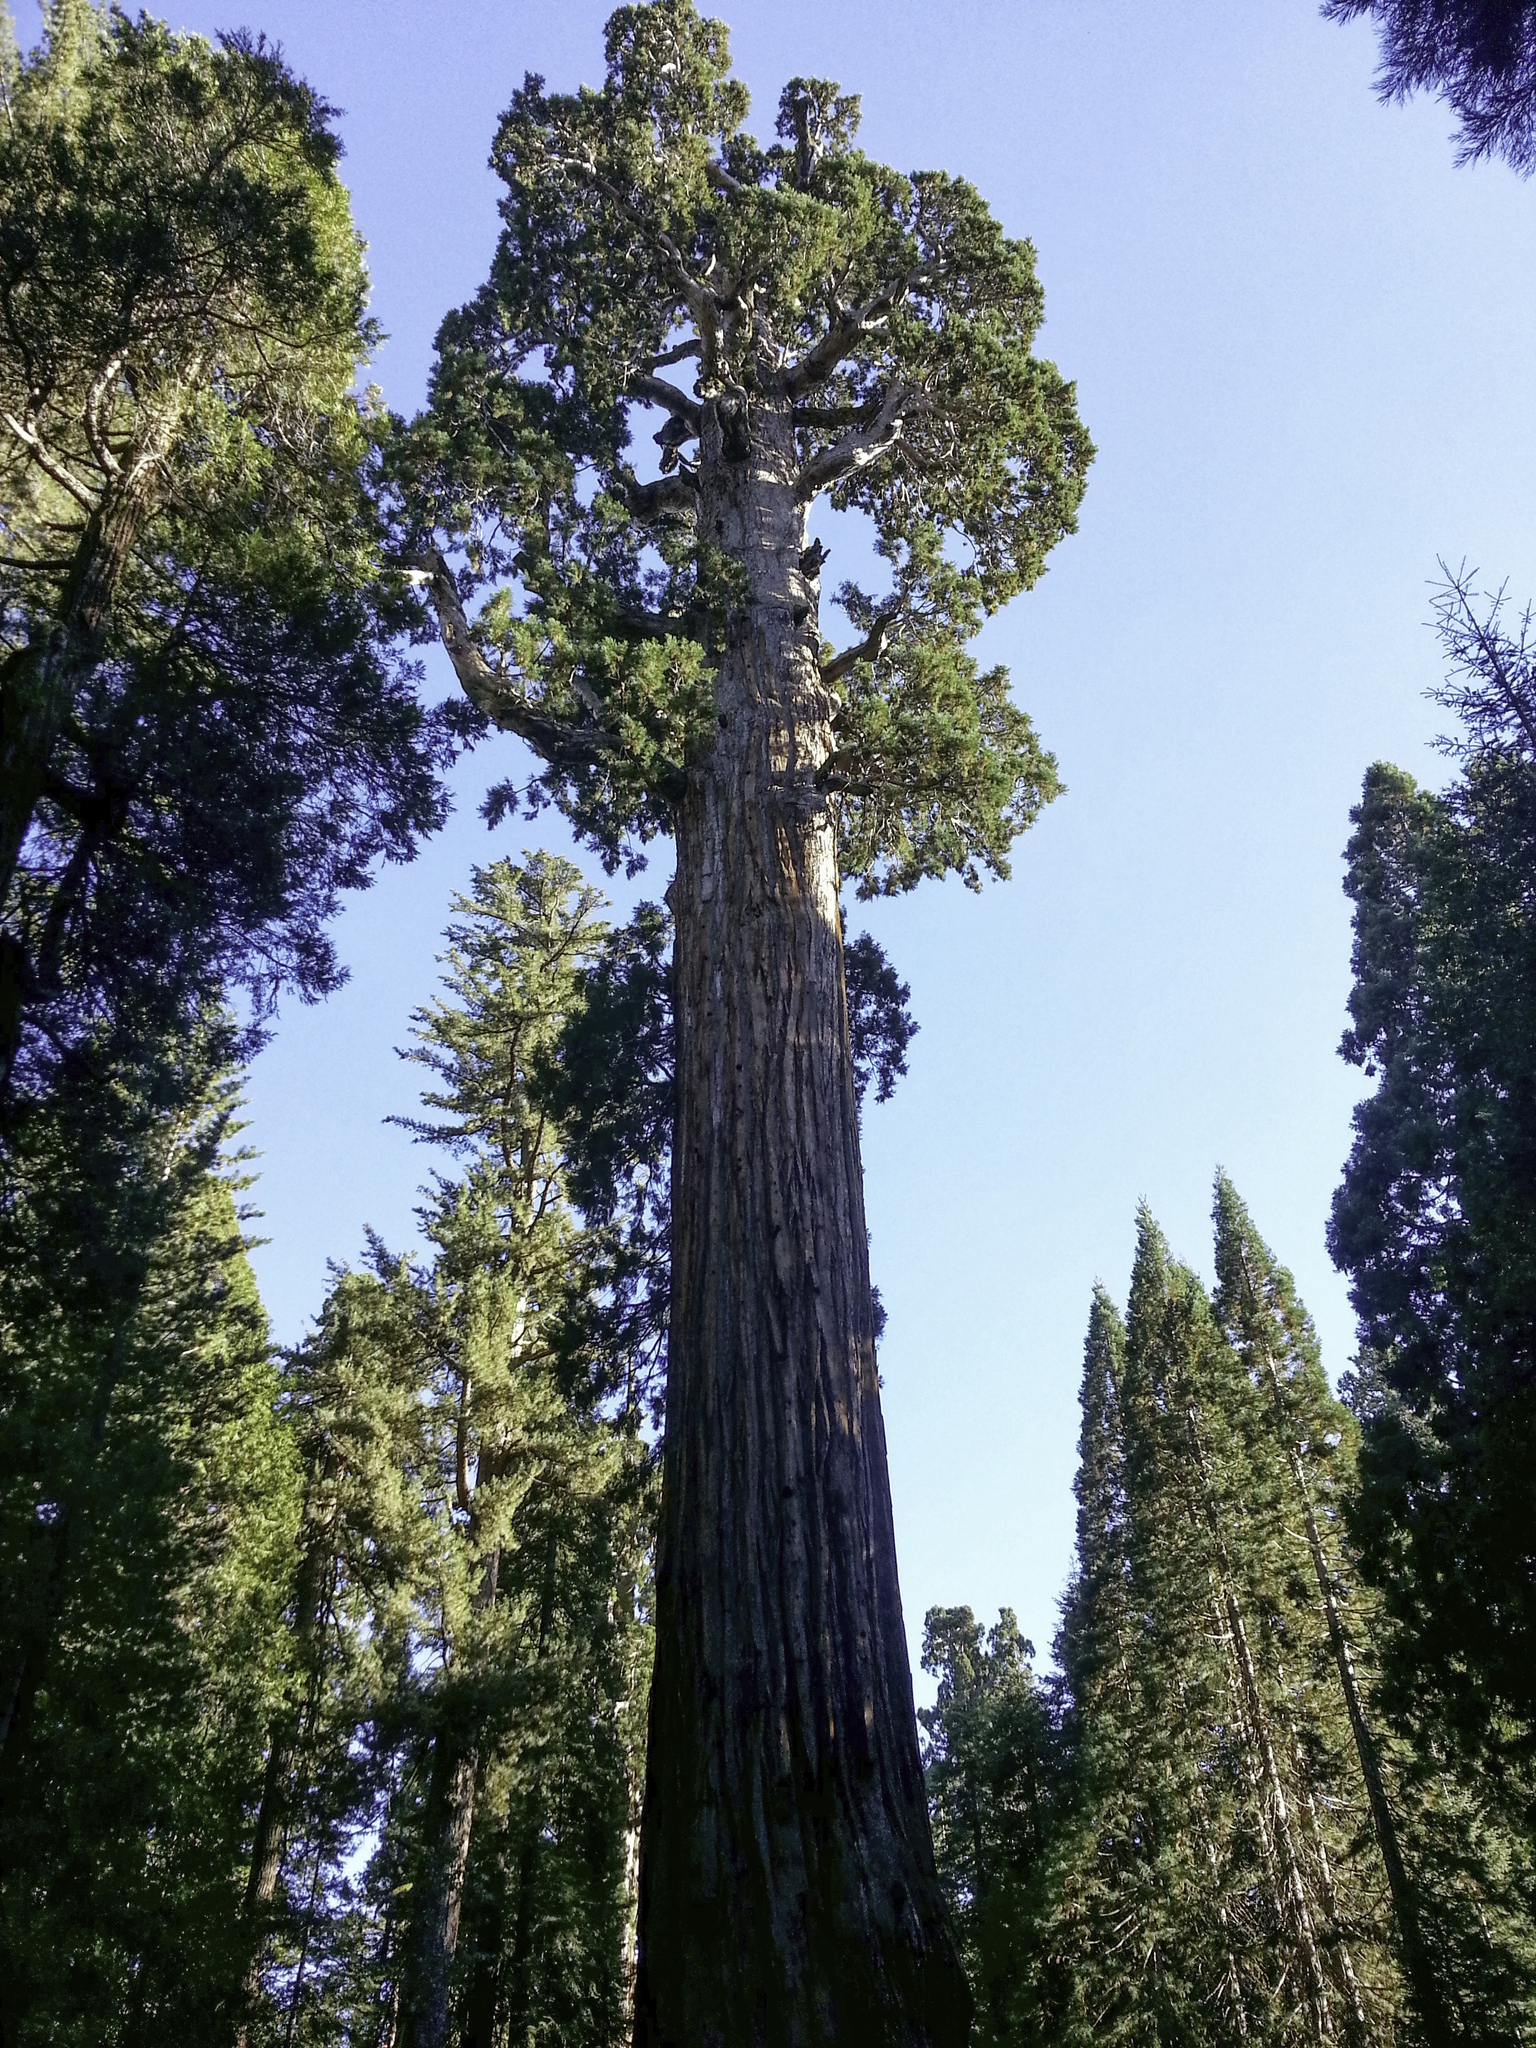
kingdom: Plantae
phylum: Tracheophyta
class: Pinopsida
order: Pinales
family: Cupressaceae
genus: Sequoiadendron
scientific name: Sequoiadendron giganteum
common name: Wellingtonia
